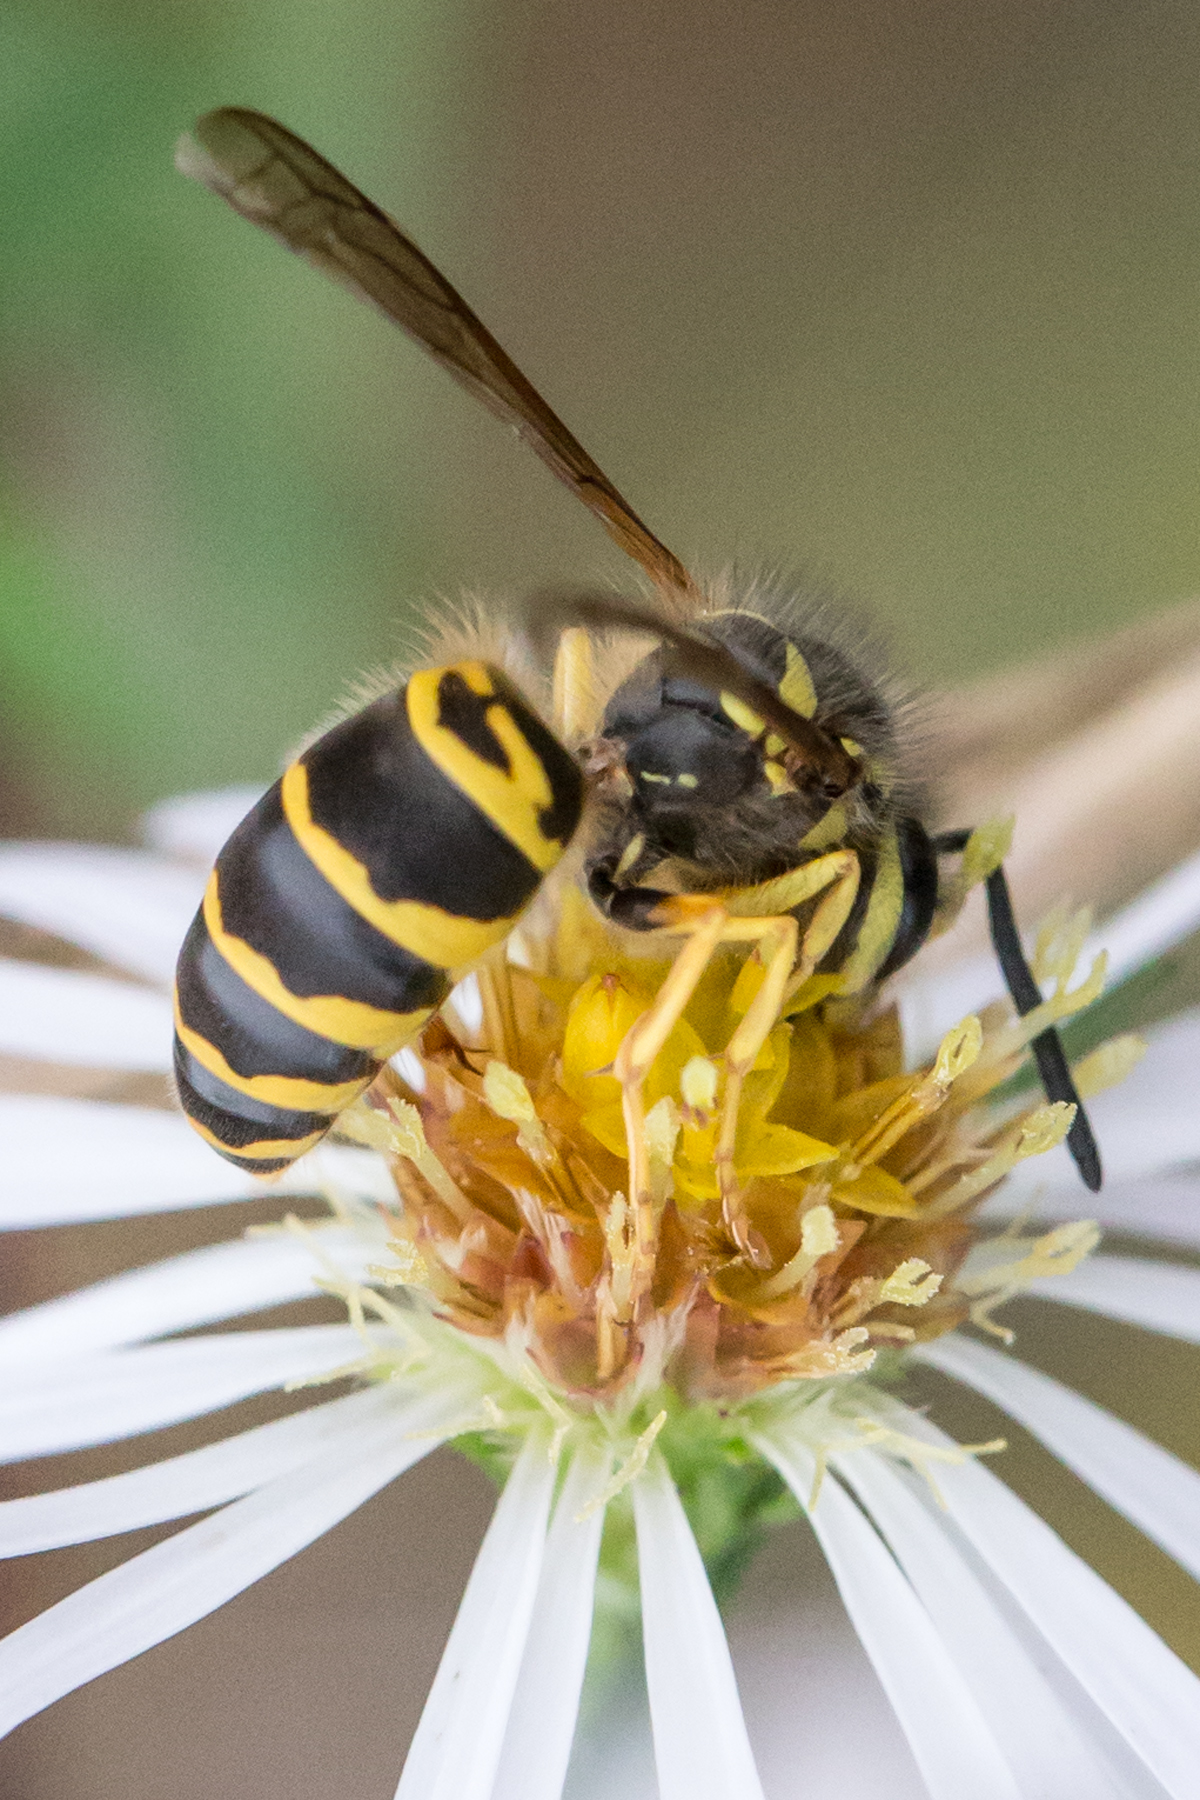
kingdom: Animalia
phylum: Arthropoda
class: Insecta
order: Hymenoptera
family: Vespidae
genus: Vespula
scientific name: Vespula maculifrons
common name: Eastern yellowjacket
